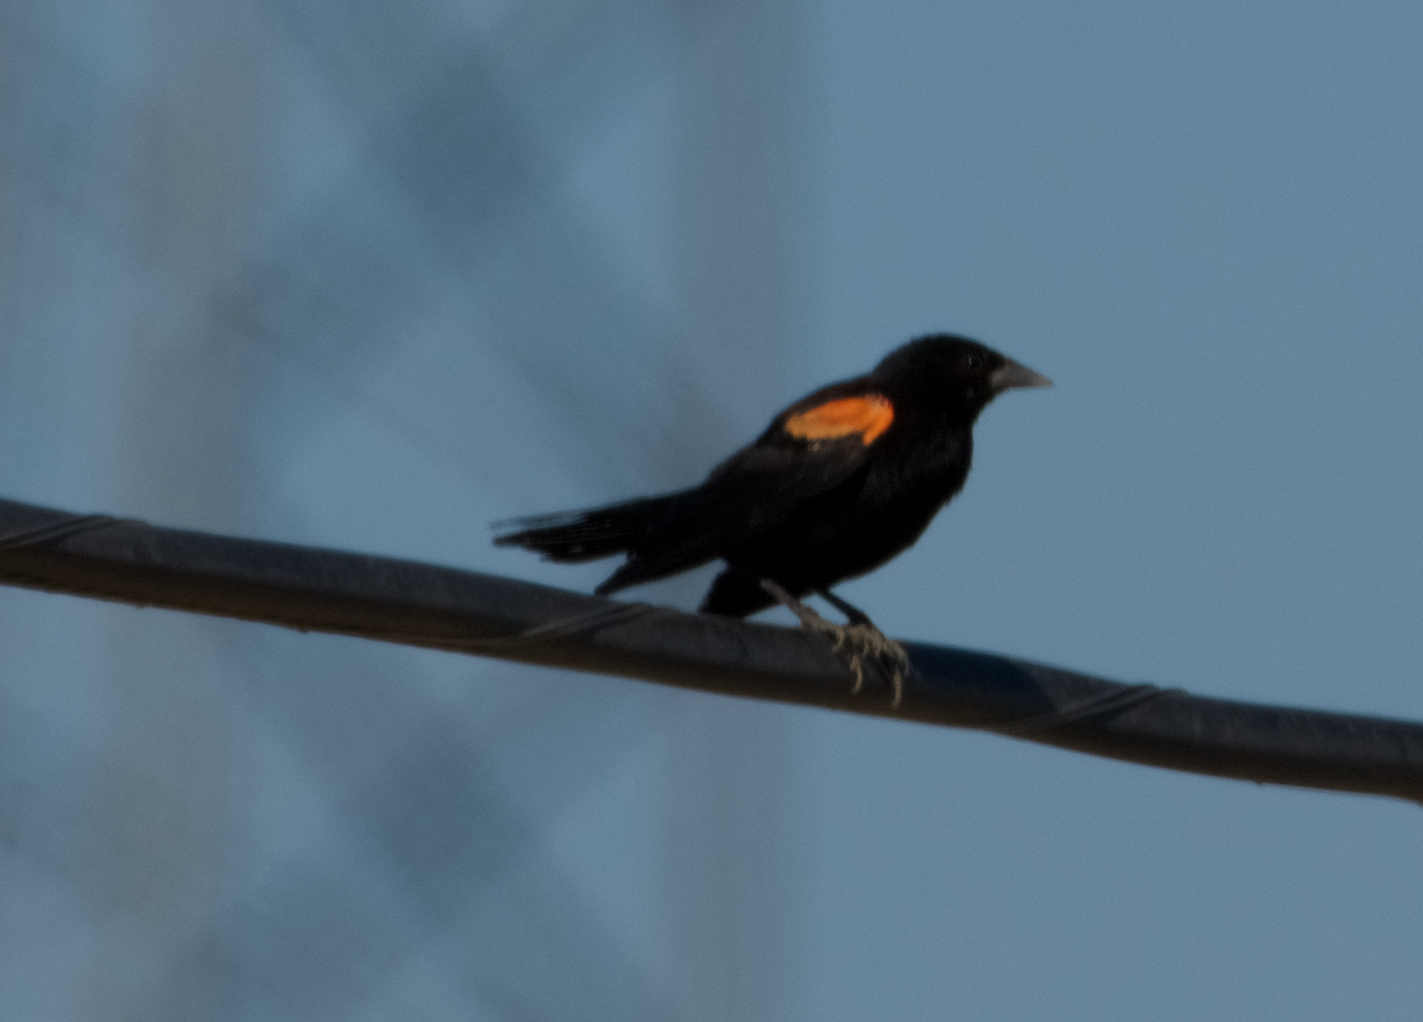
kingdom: Animalia
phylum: Chordata
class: Aves
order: Passeriformes
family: Icteridae
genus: Agelaius
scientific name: Agelaius phoeniceus
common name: Red-winged blackbird
